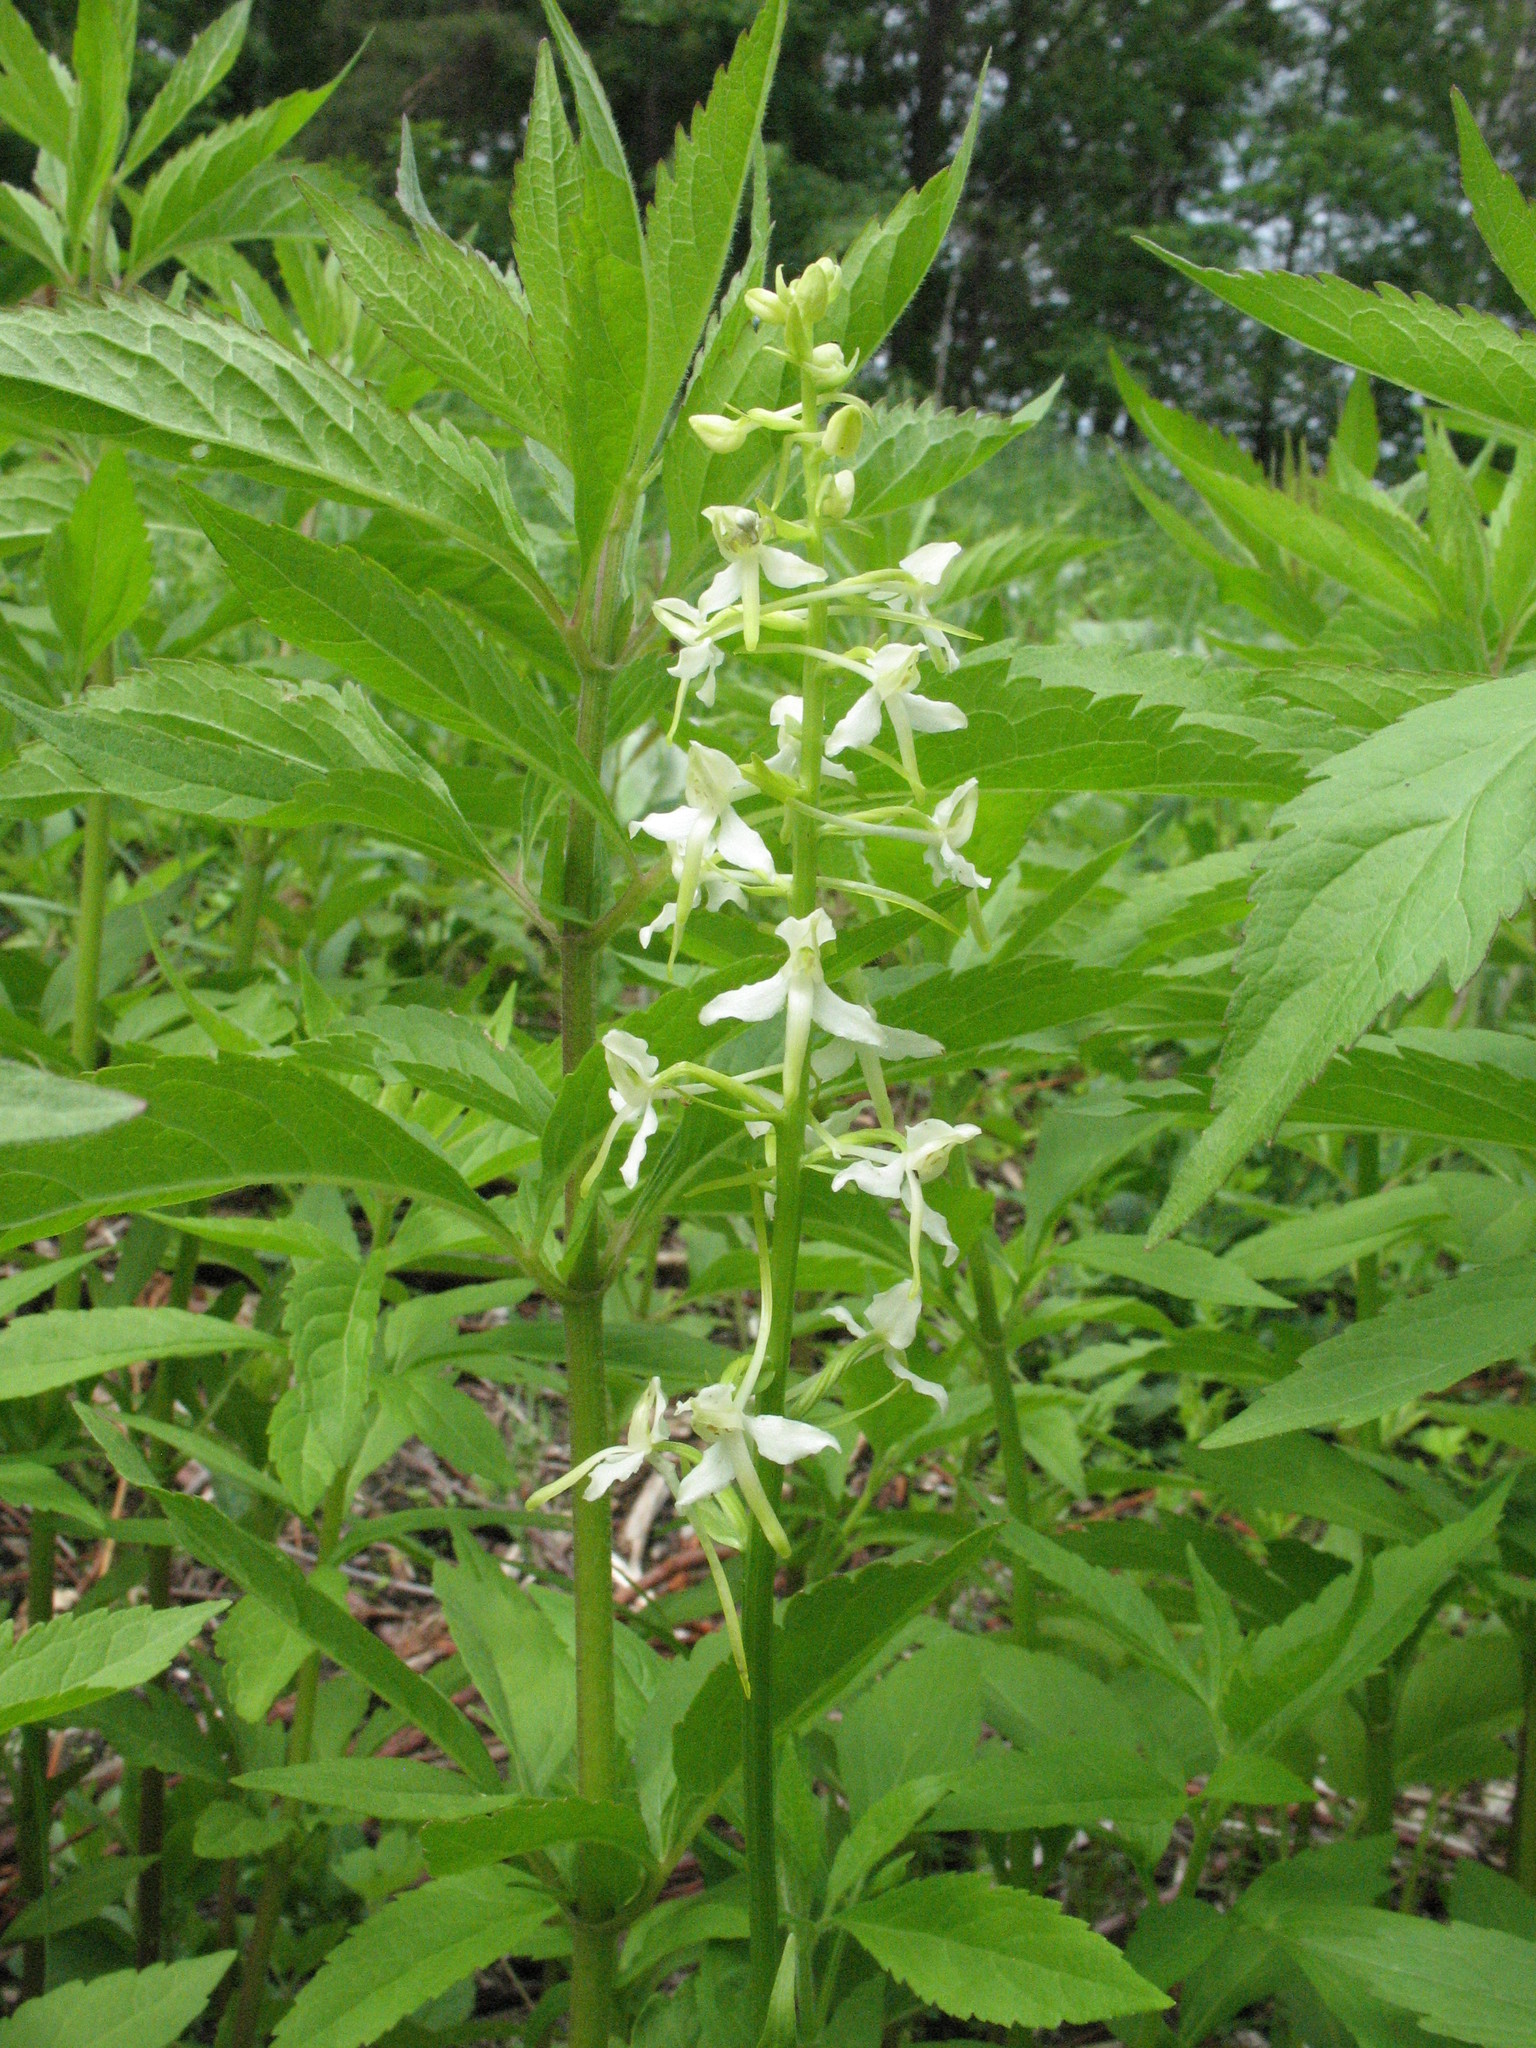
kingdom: Plantae
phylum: Tracheophyta
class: Liliopsida
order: Asparagales
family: Orchidaceae
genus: Platanthera
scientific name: Platanthera bifolia
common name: Lesser butterfly-orchid
